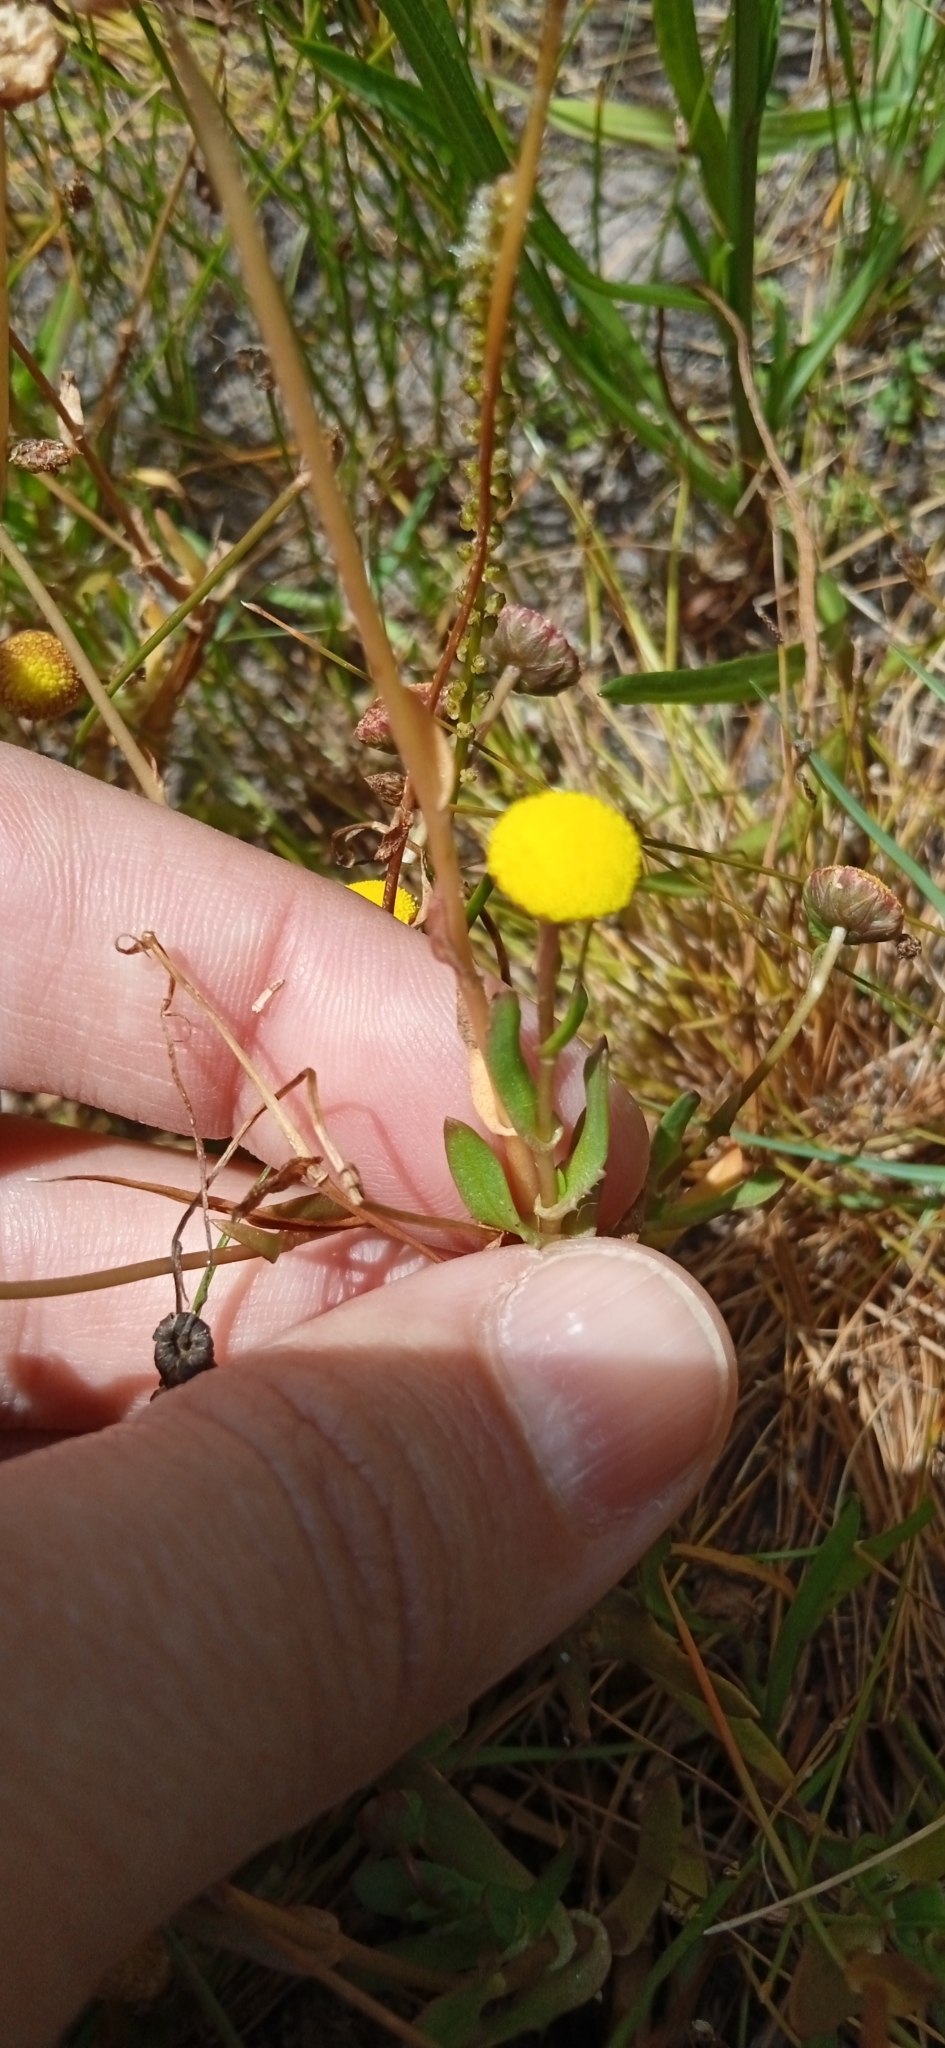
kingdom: Plantae
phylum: Tracheophyta
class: Magnoliopsida
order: Asterales
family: Asteraceae
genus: Cotula
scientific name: Cotula coronopifolia
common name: Buttonweed
